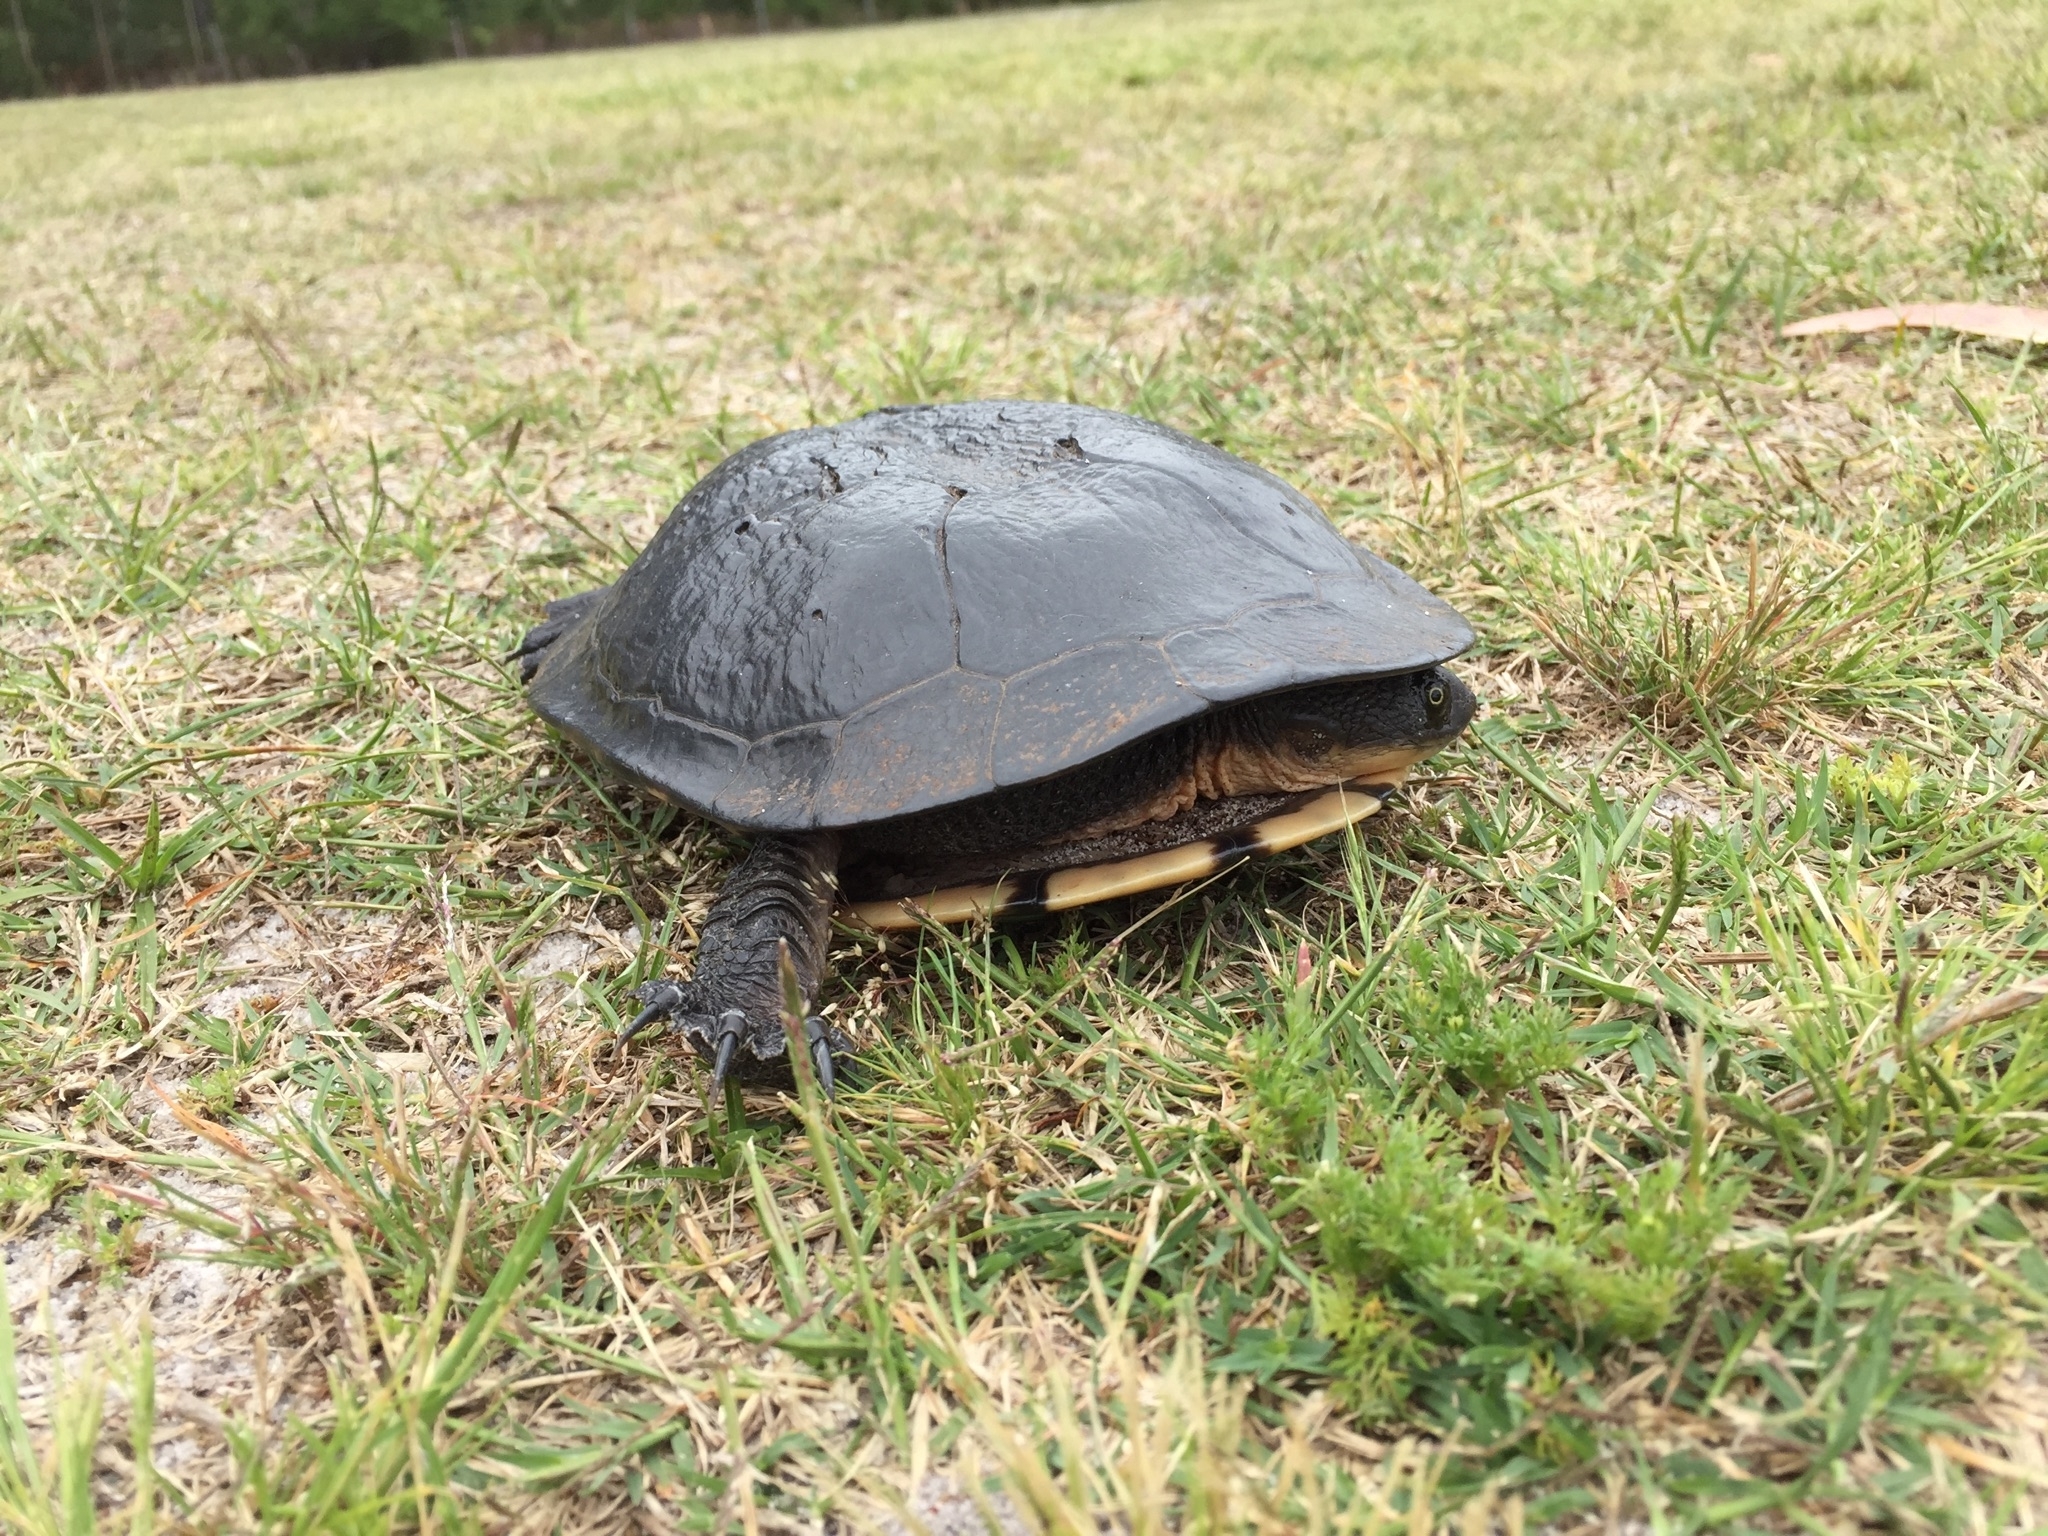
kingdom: Animalia
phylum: Chordata
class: Testudines
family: Chelidae
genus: Chelodina
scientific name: Chelodina longicollis
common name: Eastern snake-necked turtle
